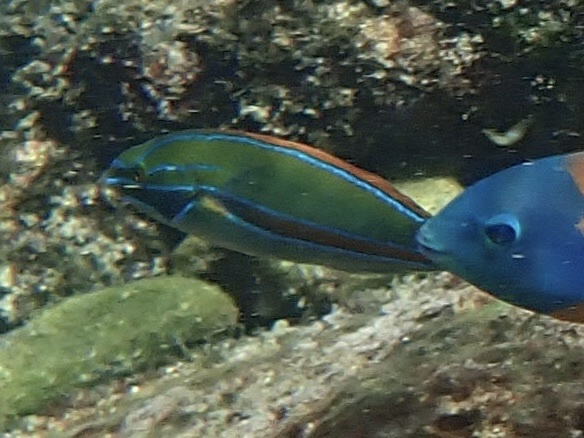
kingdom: Animalia
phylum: Chordata
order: Perciformes
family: Labridae
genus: Stethojulis
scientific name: Stethojulis balteata
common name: Belted wrasse
